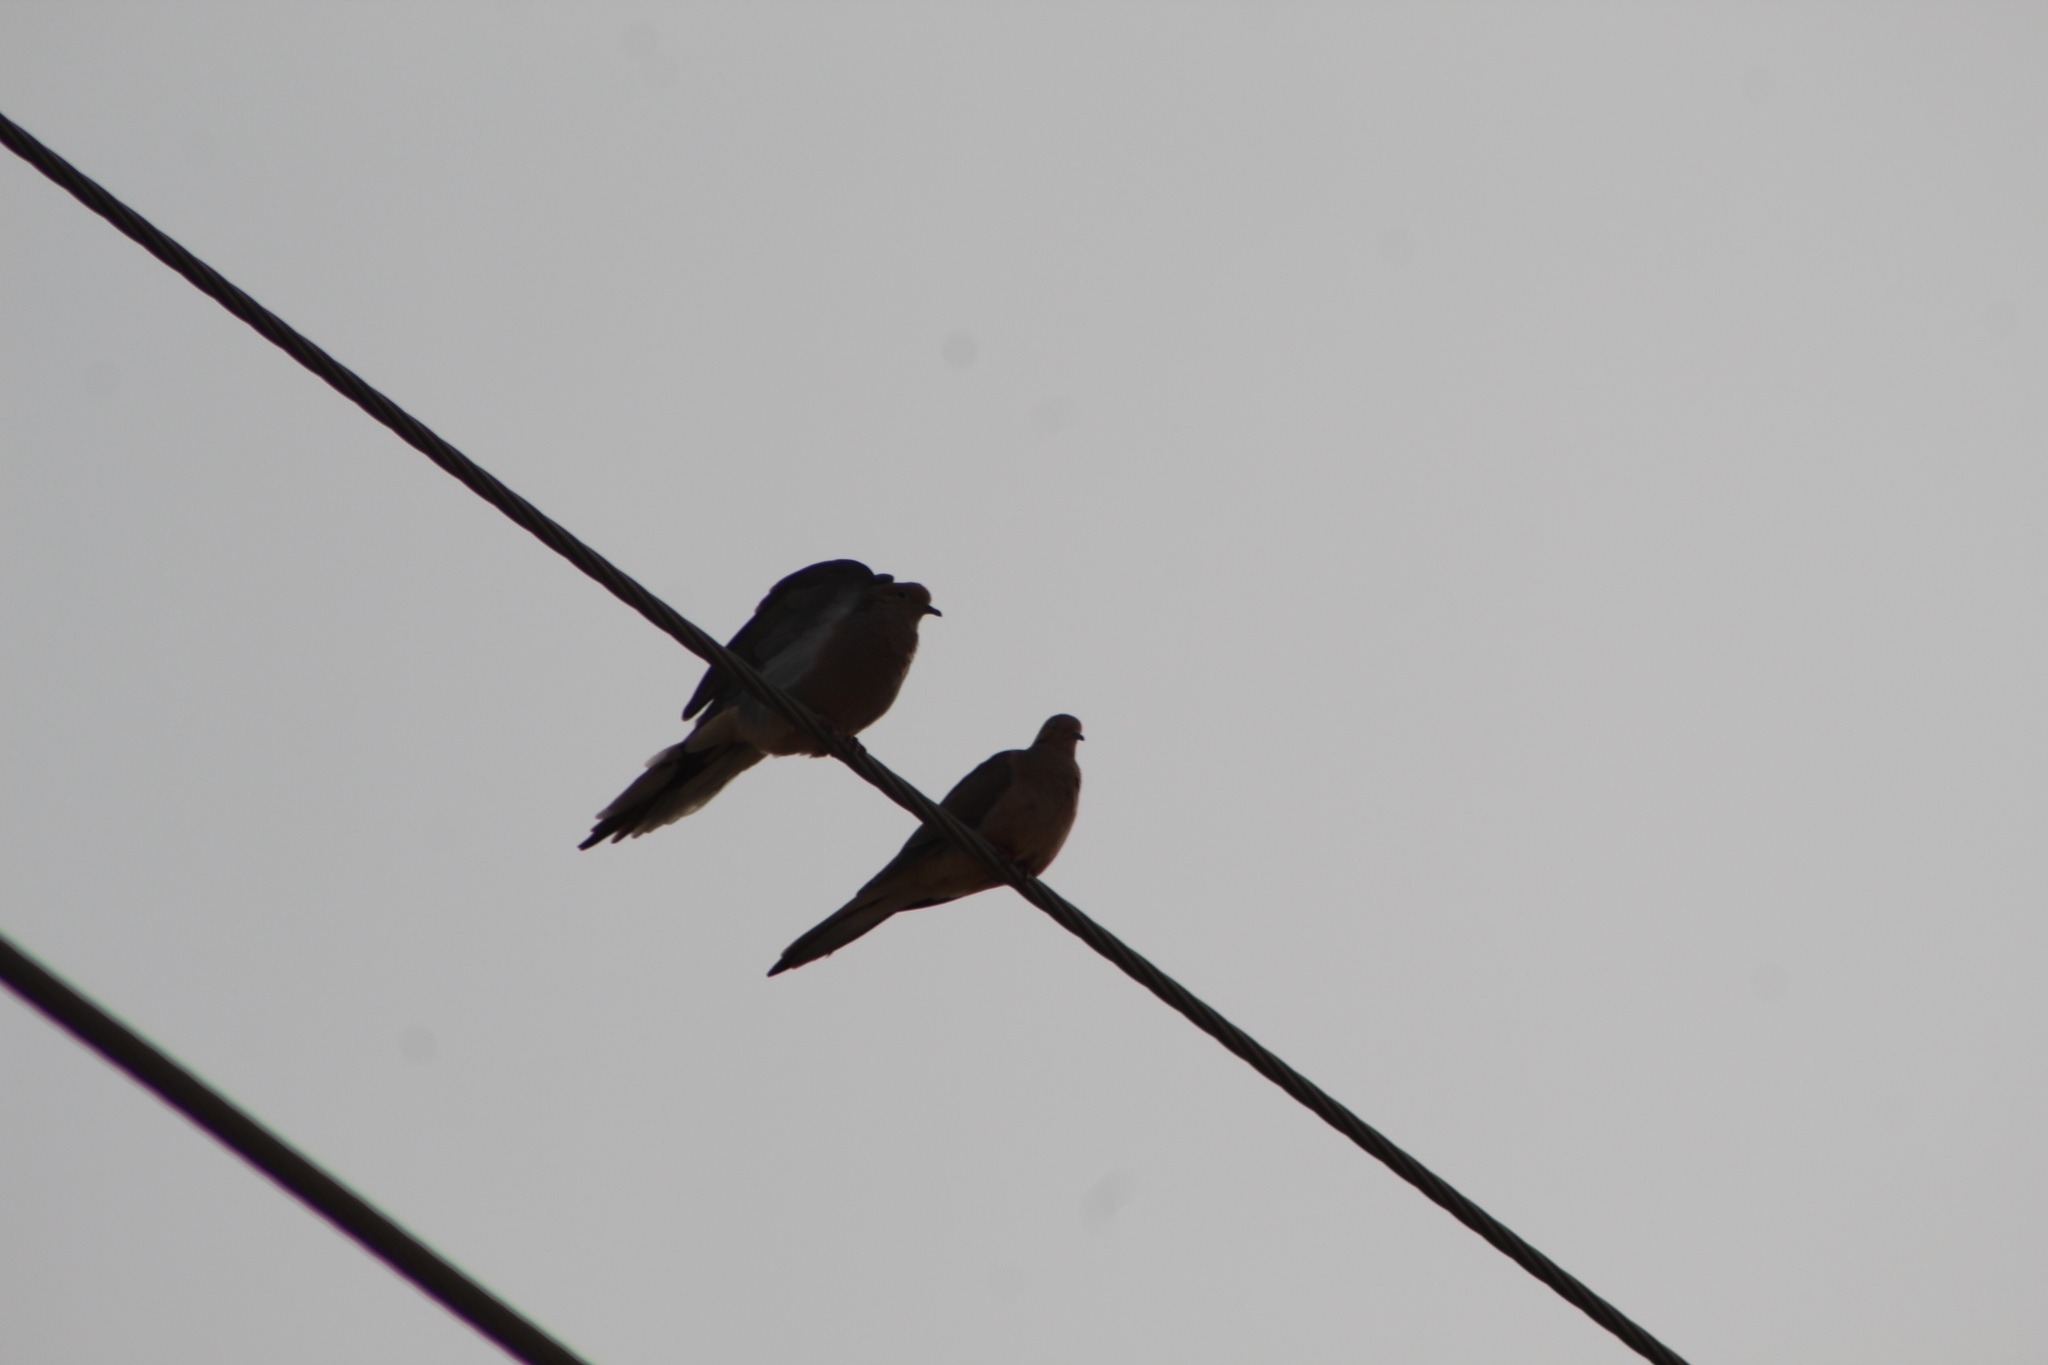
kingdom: Animalia
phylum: Chordata
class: Aves
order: Columbiformes
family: Columbidae
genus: Zenaida
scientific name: Zenaida macroura
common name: Mourning dove
